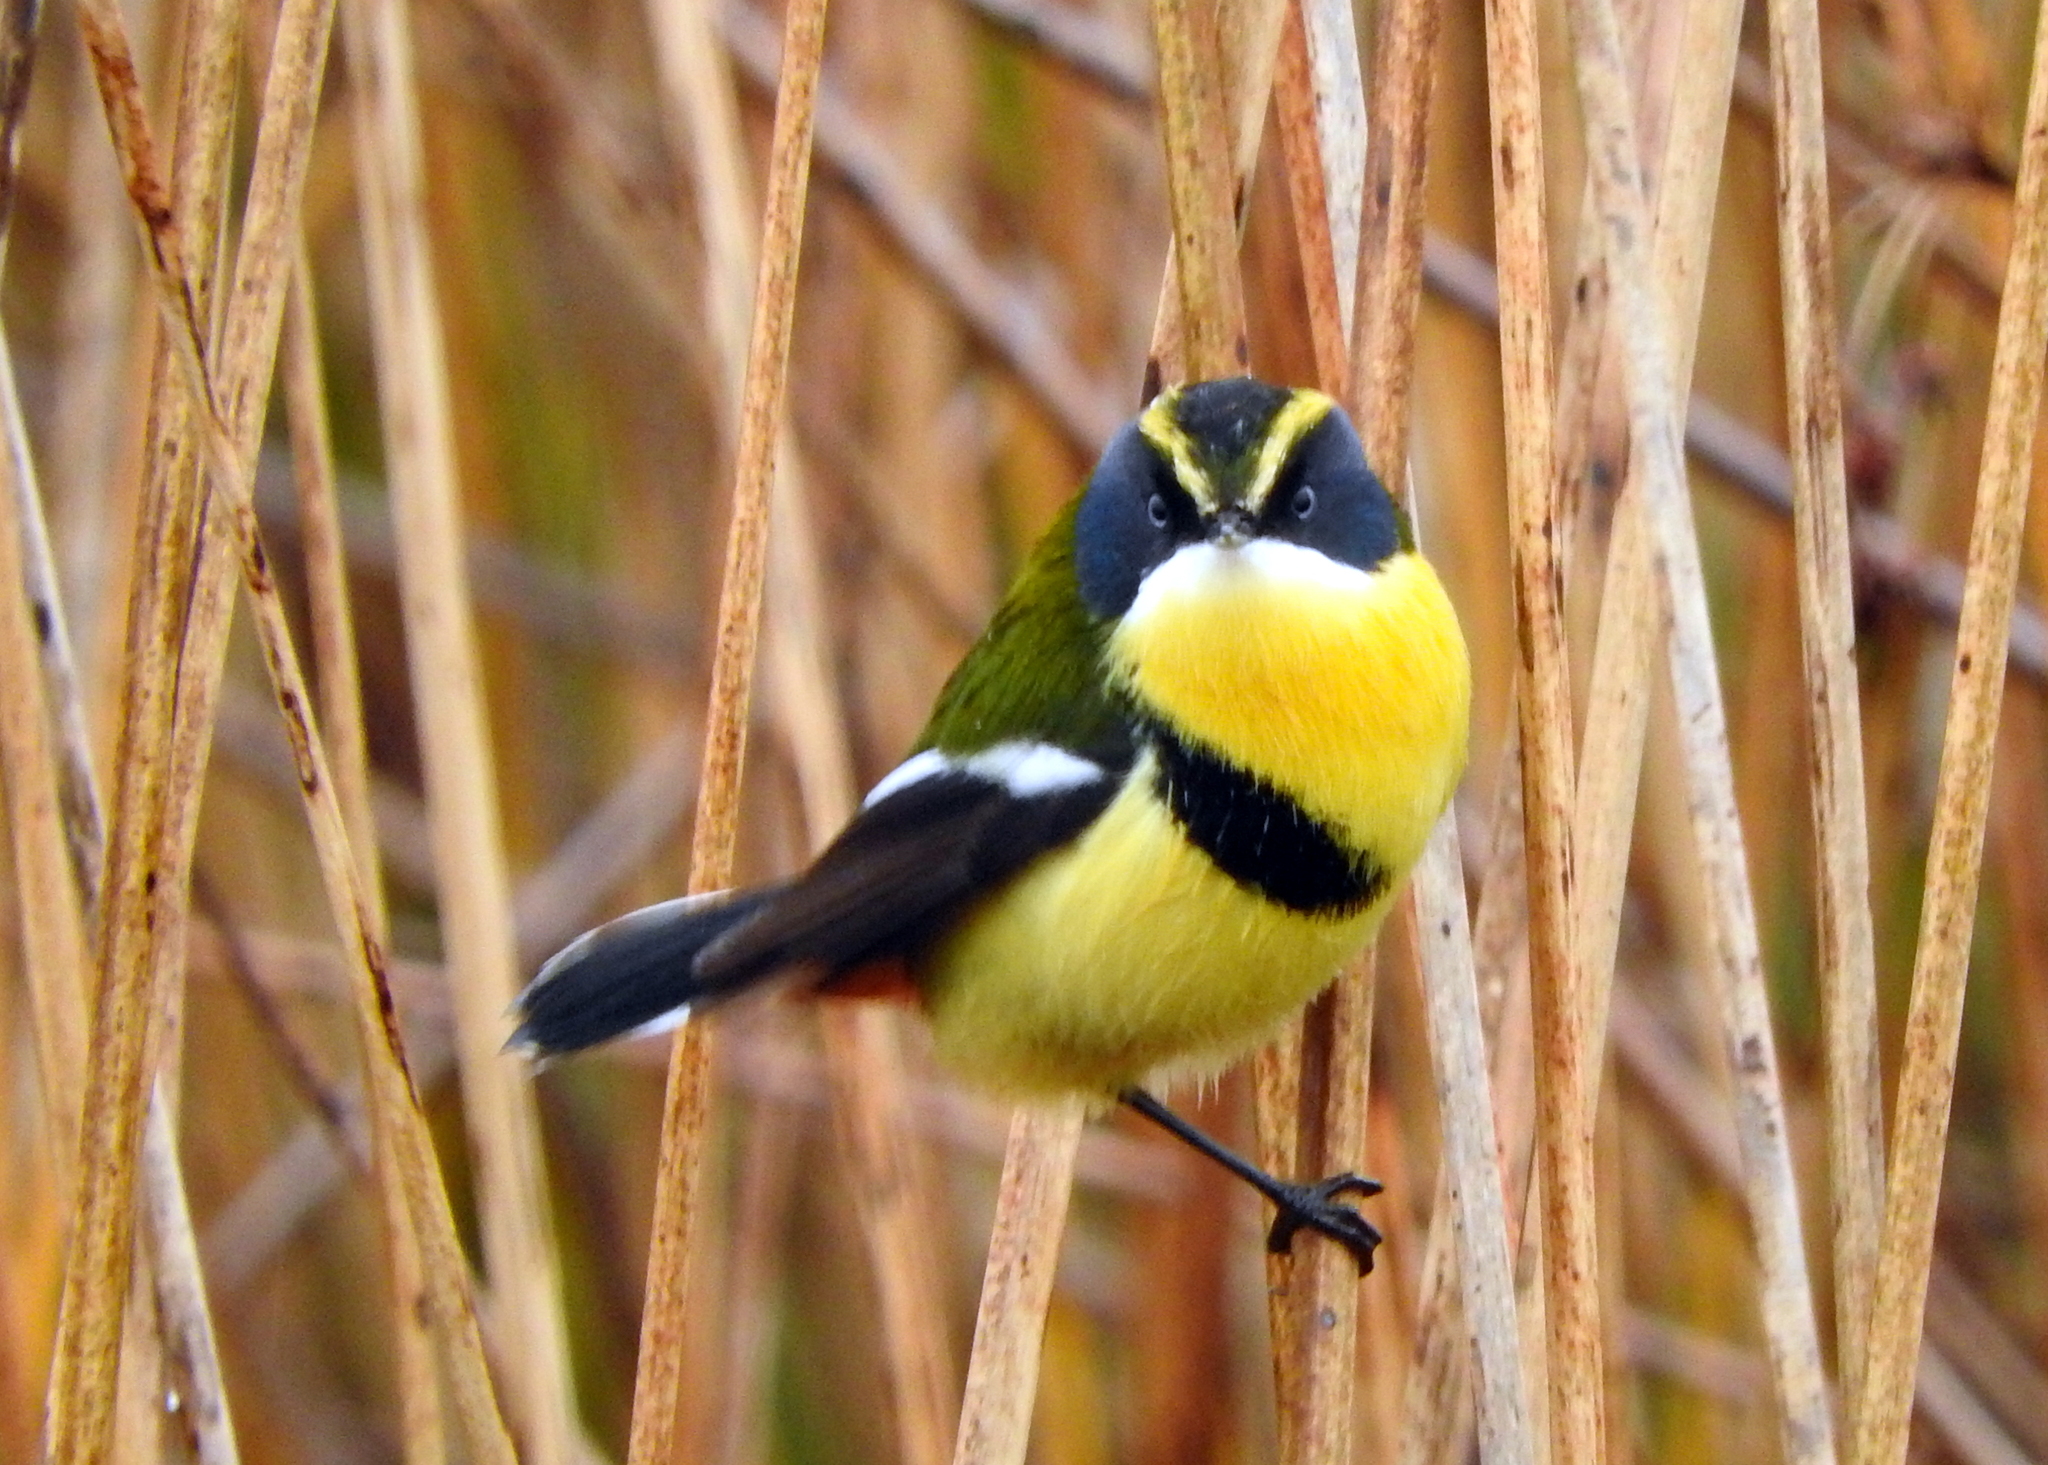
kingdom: Animalia
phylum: Chordata
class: Aves
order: Passeriformes
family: Tyrannidae
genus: Tachuris
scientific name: Tachuris rubrigastra
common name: Many-colored rush tyrant
